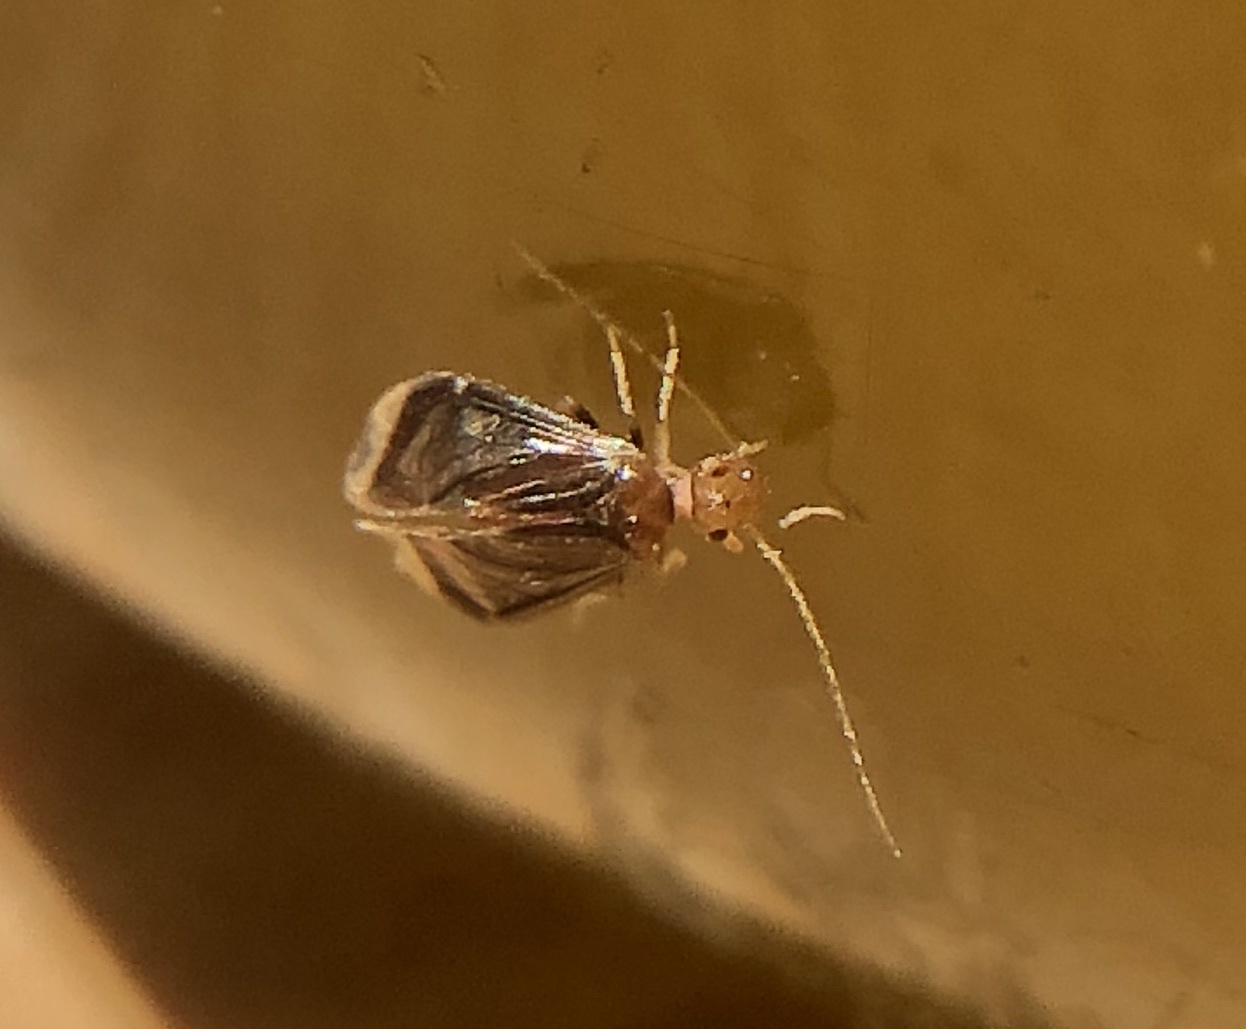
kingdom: Animalia
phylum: Arthropoda
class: Insecta
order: Psocodea
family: Amphipsocidae
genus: Polypsocus
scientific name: Polypsocus corruptus
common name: Corrupt barklouse
